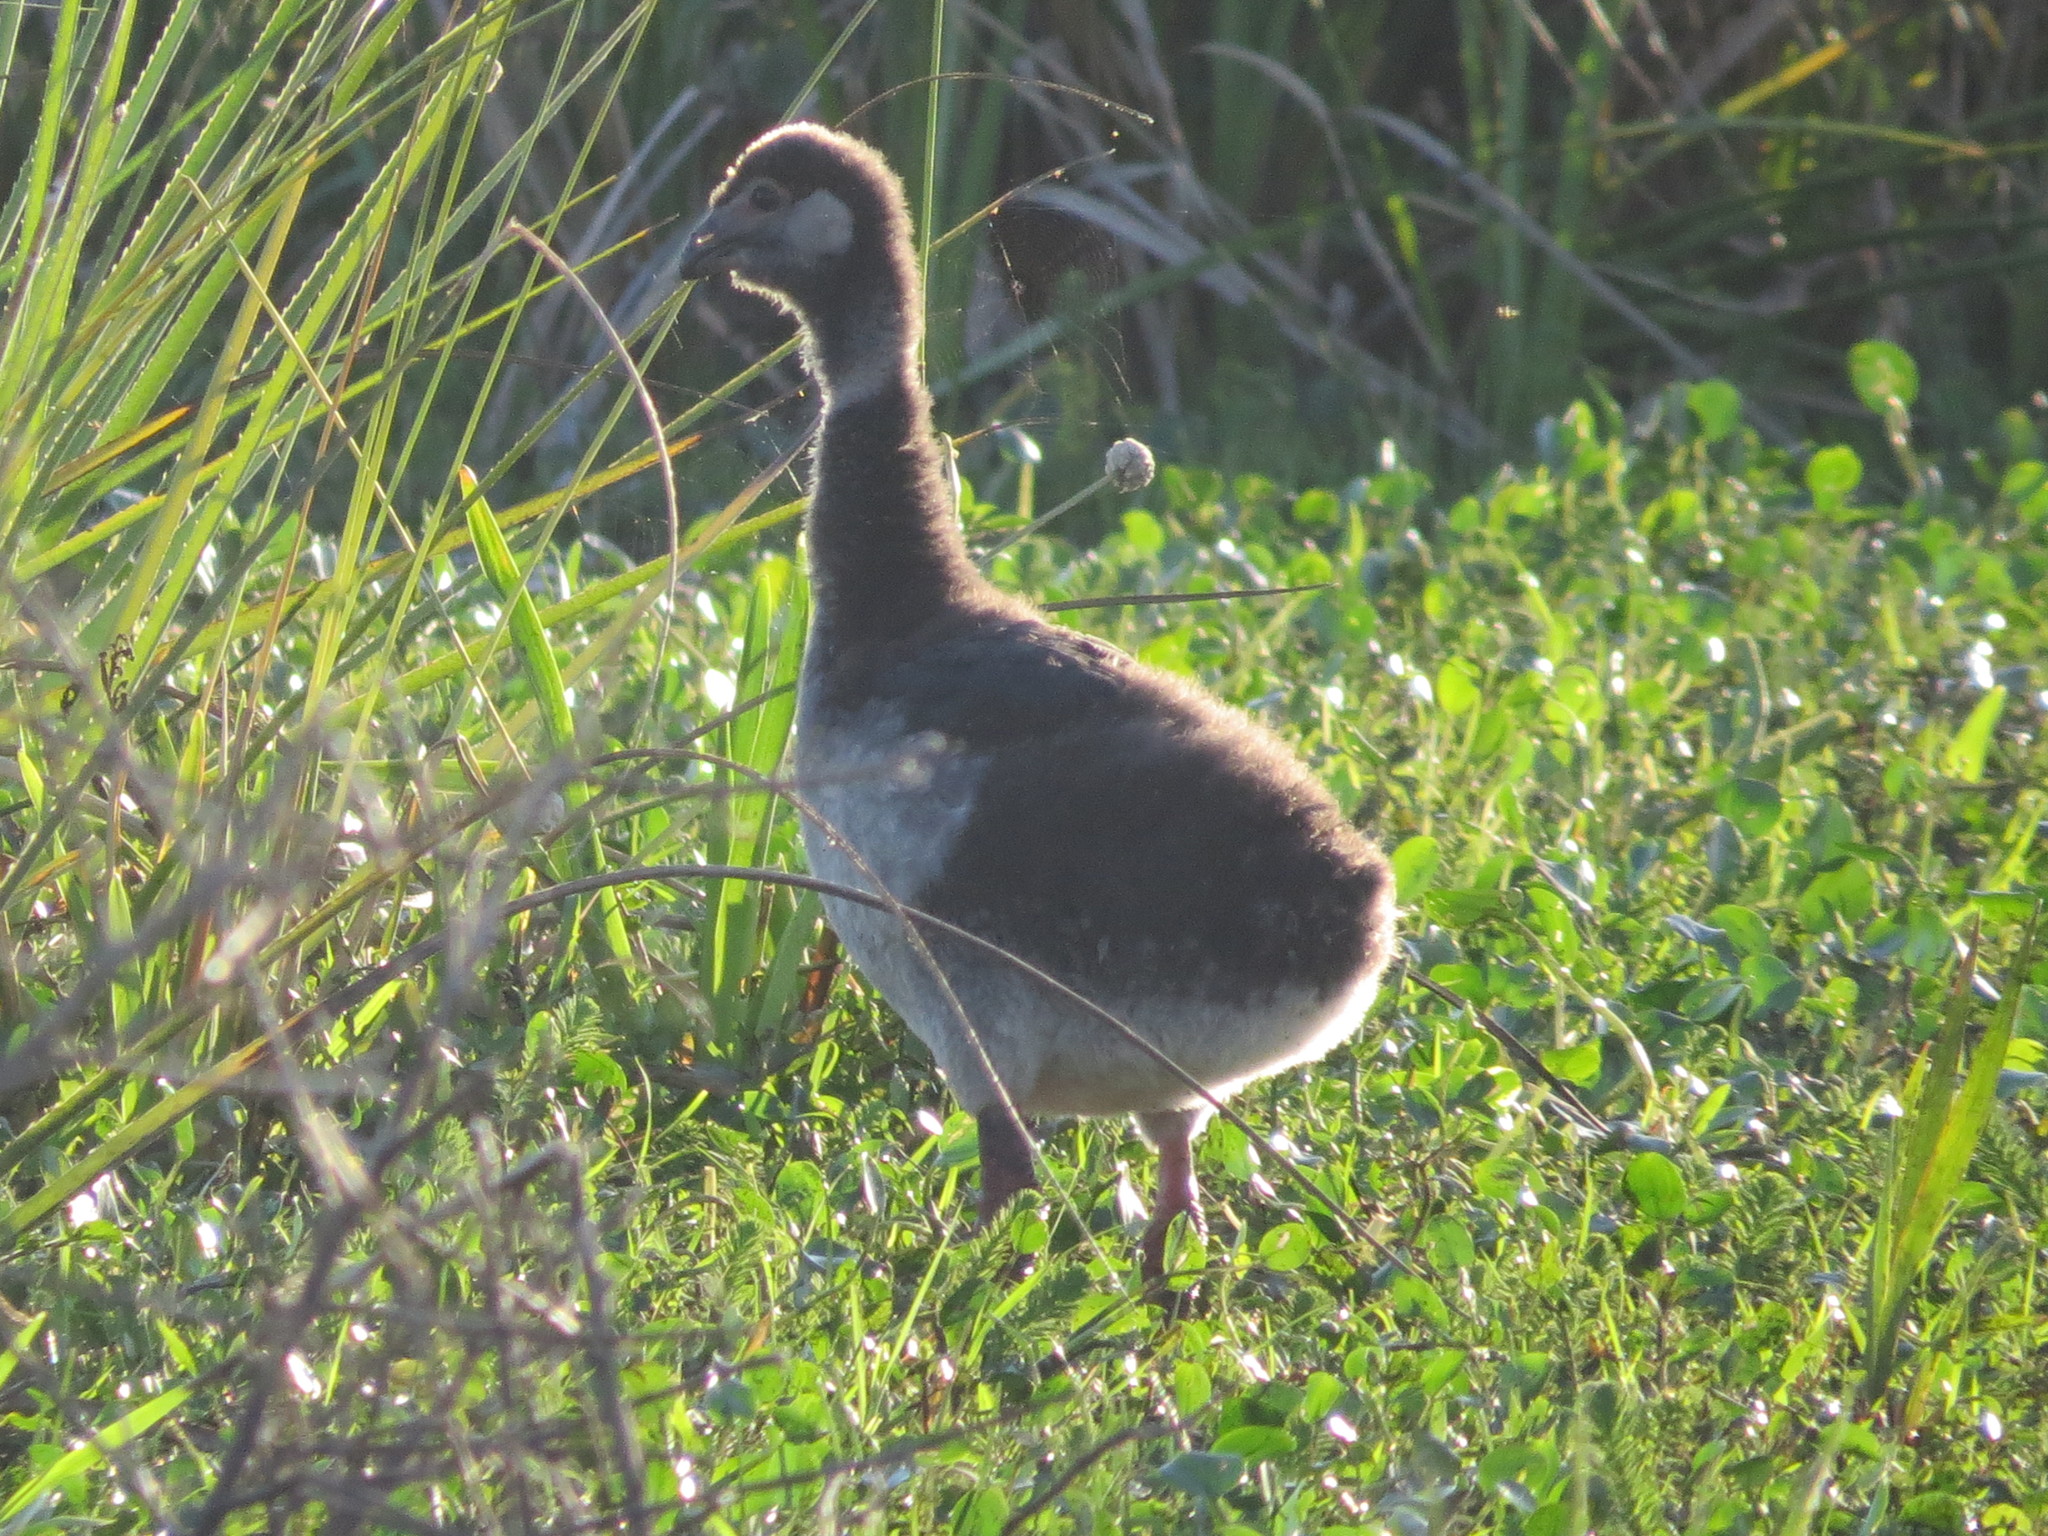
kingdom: Animalia
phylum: Chordata
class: Aves
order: Anseriformes
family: Anhimidae
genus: Chauna
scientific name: Chauna torquata
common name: Southern screamer
